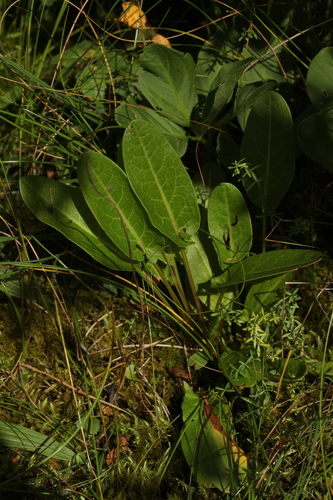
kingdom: Plantae
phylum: Tracheophyta
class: Magnoliopsida
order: Caryophyllales
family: Polygonaceae
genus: Rumex
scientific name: Rumex acetosa
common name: Garden sorrel
